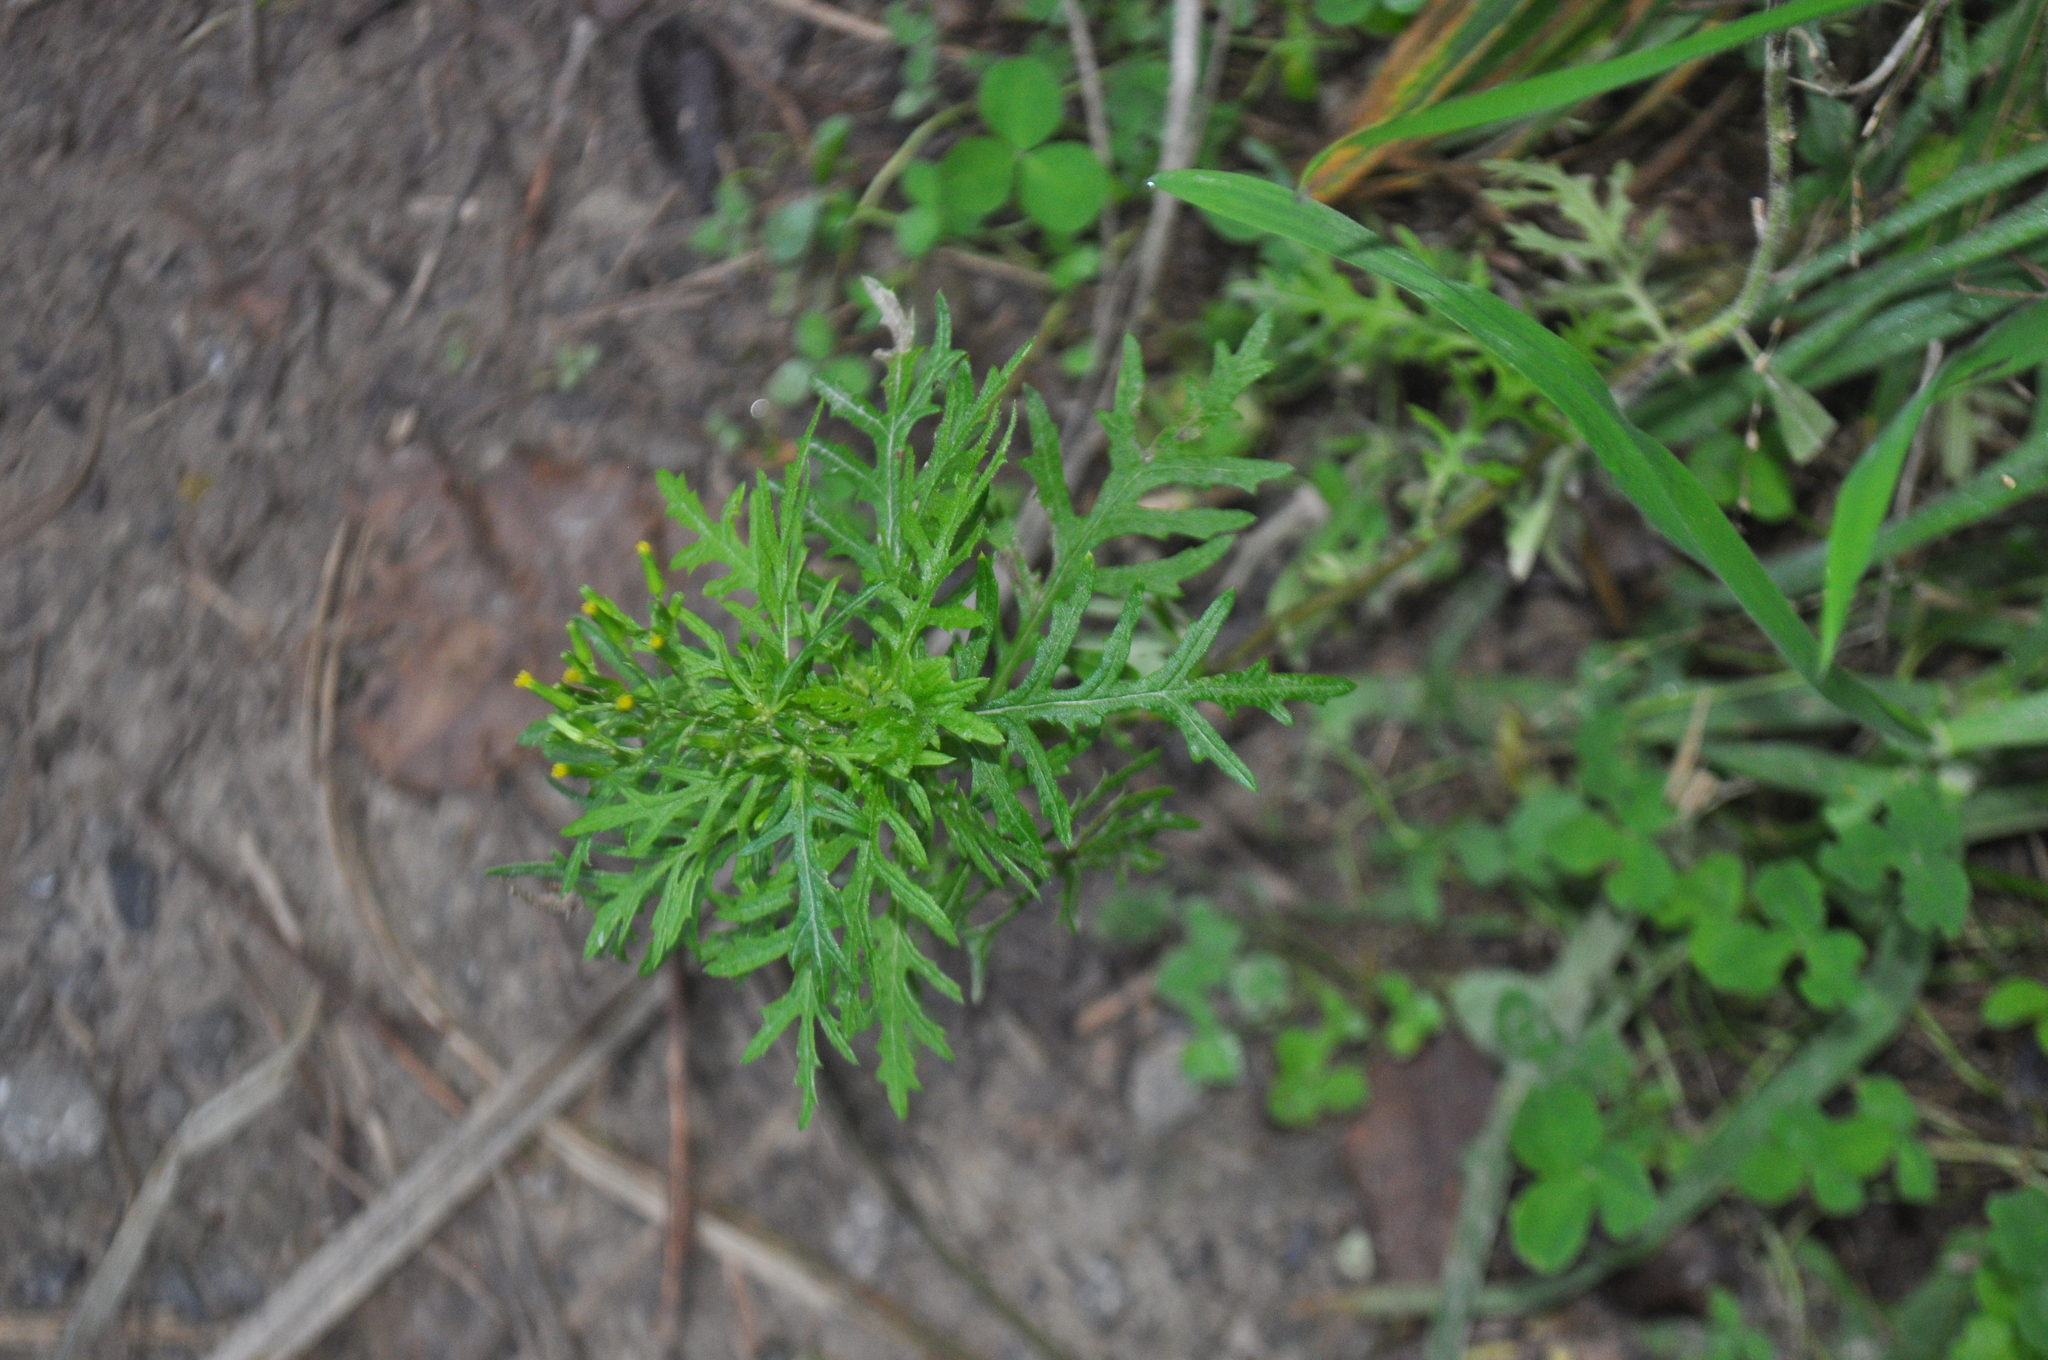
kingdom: Plantae
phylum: Tracheophyta
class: Magnoliopsida
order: Asterales
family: Asteraceae
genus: Senecio
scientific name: Senecio bipinnatisectus
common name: Australian fireweed
